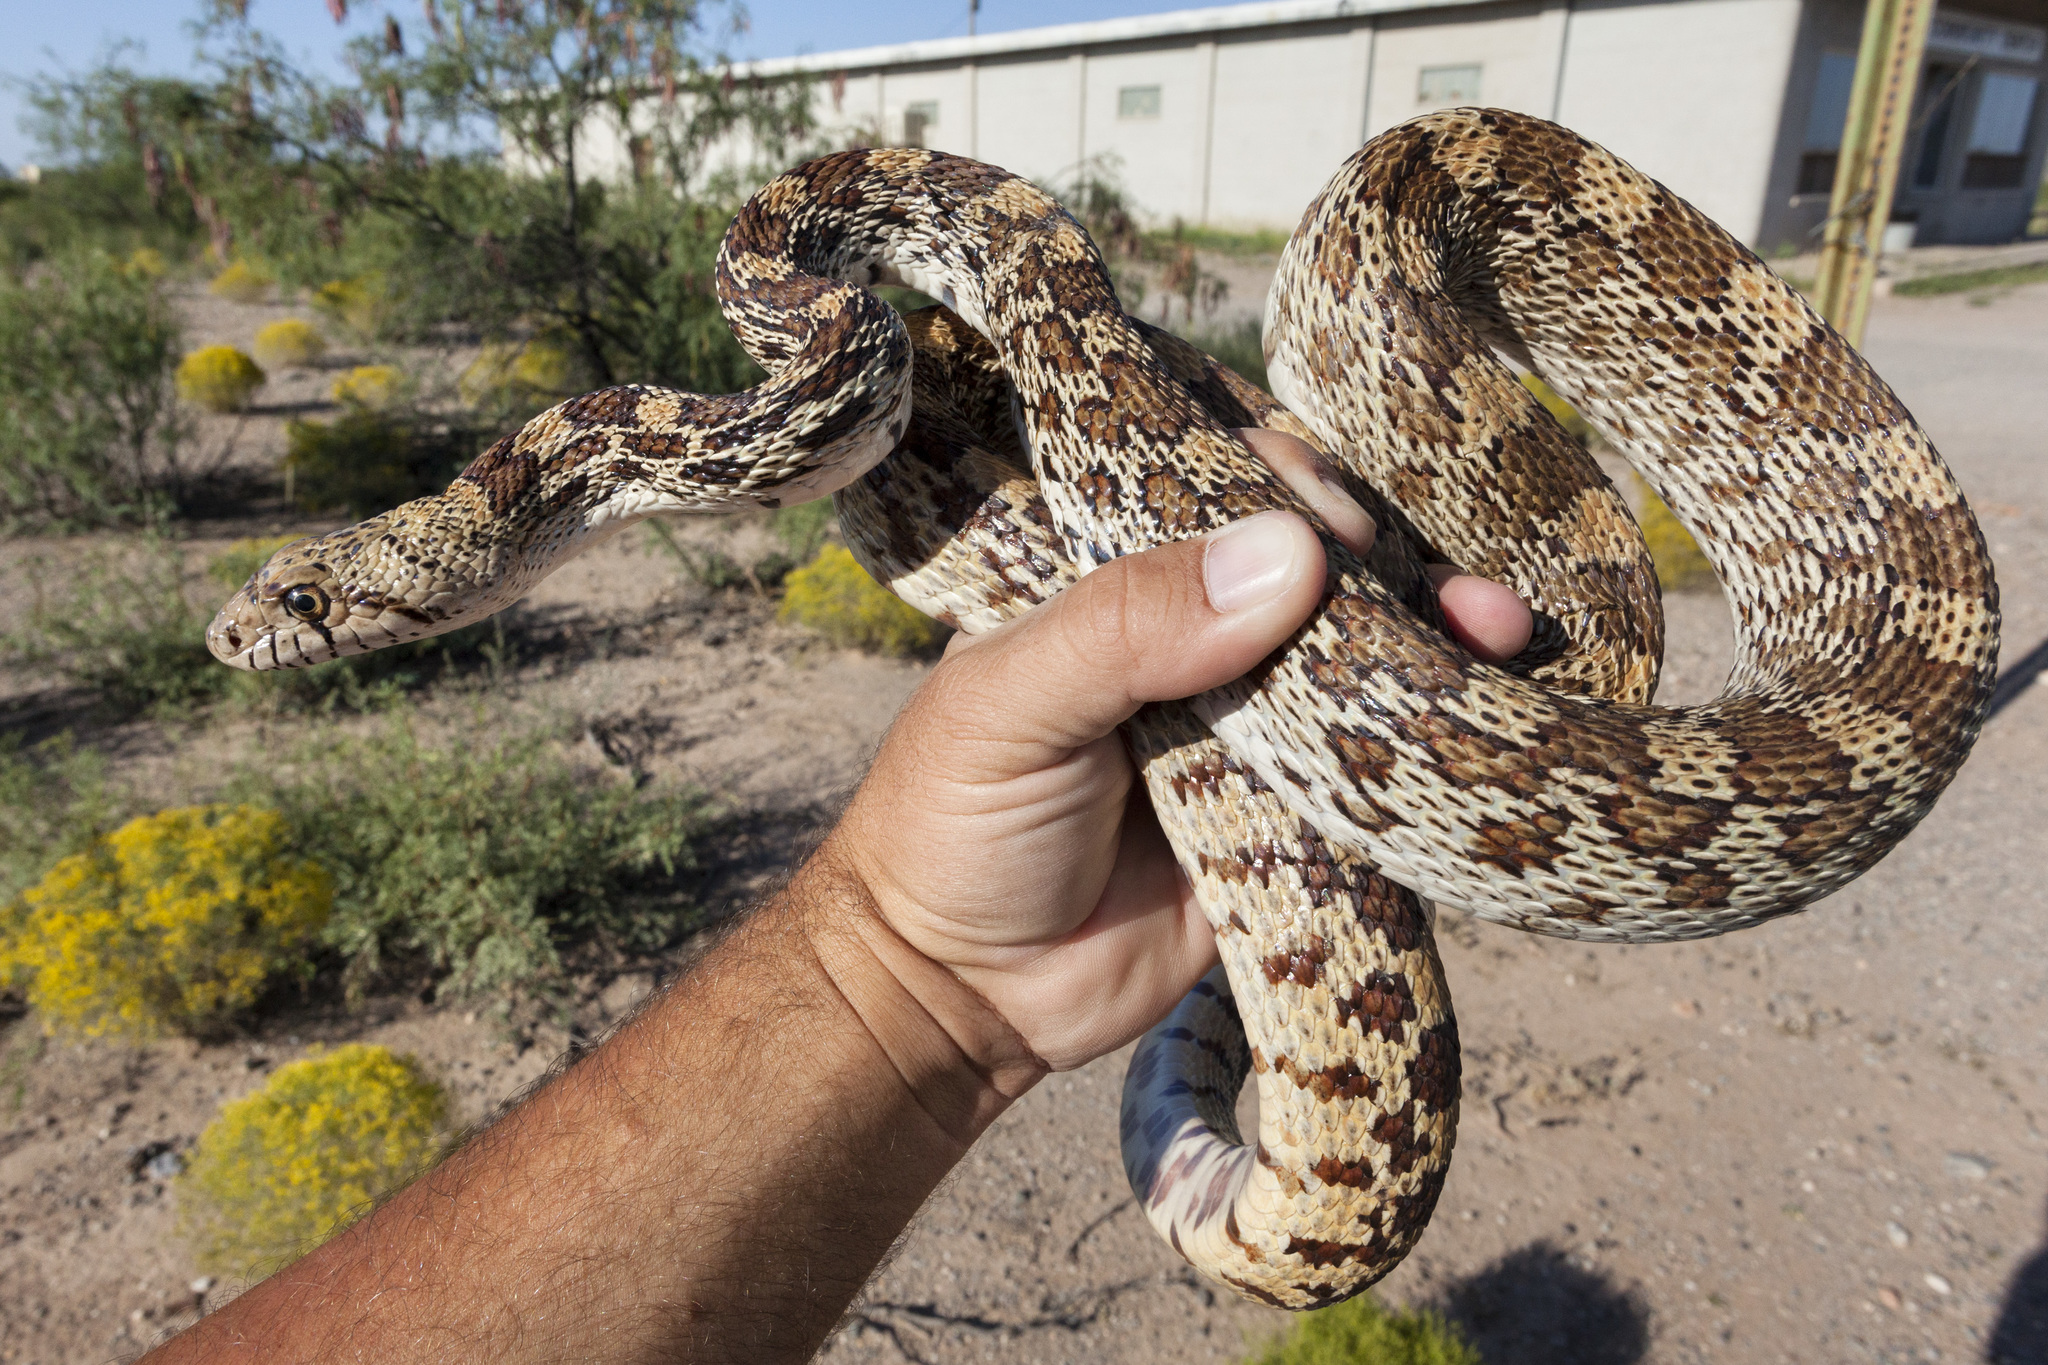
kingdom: Animalia
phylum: Chordata
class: Squamata
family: Colubridae
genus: Pituophis
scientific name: Pituophis catenifer
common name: Gopher snake
